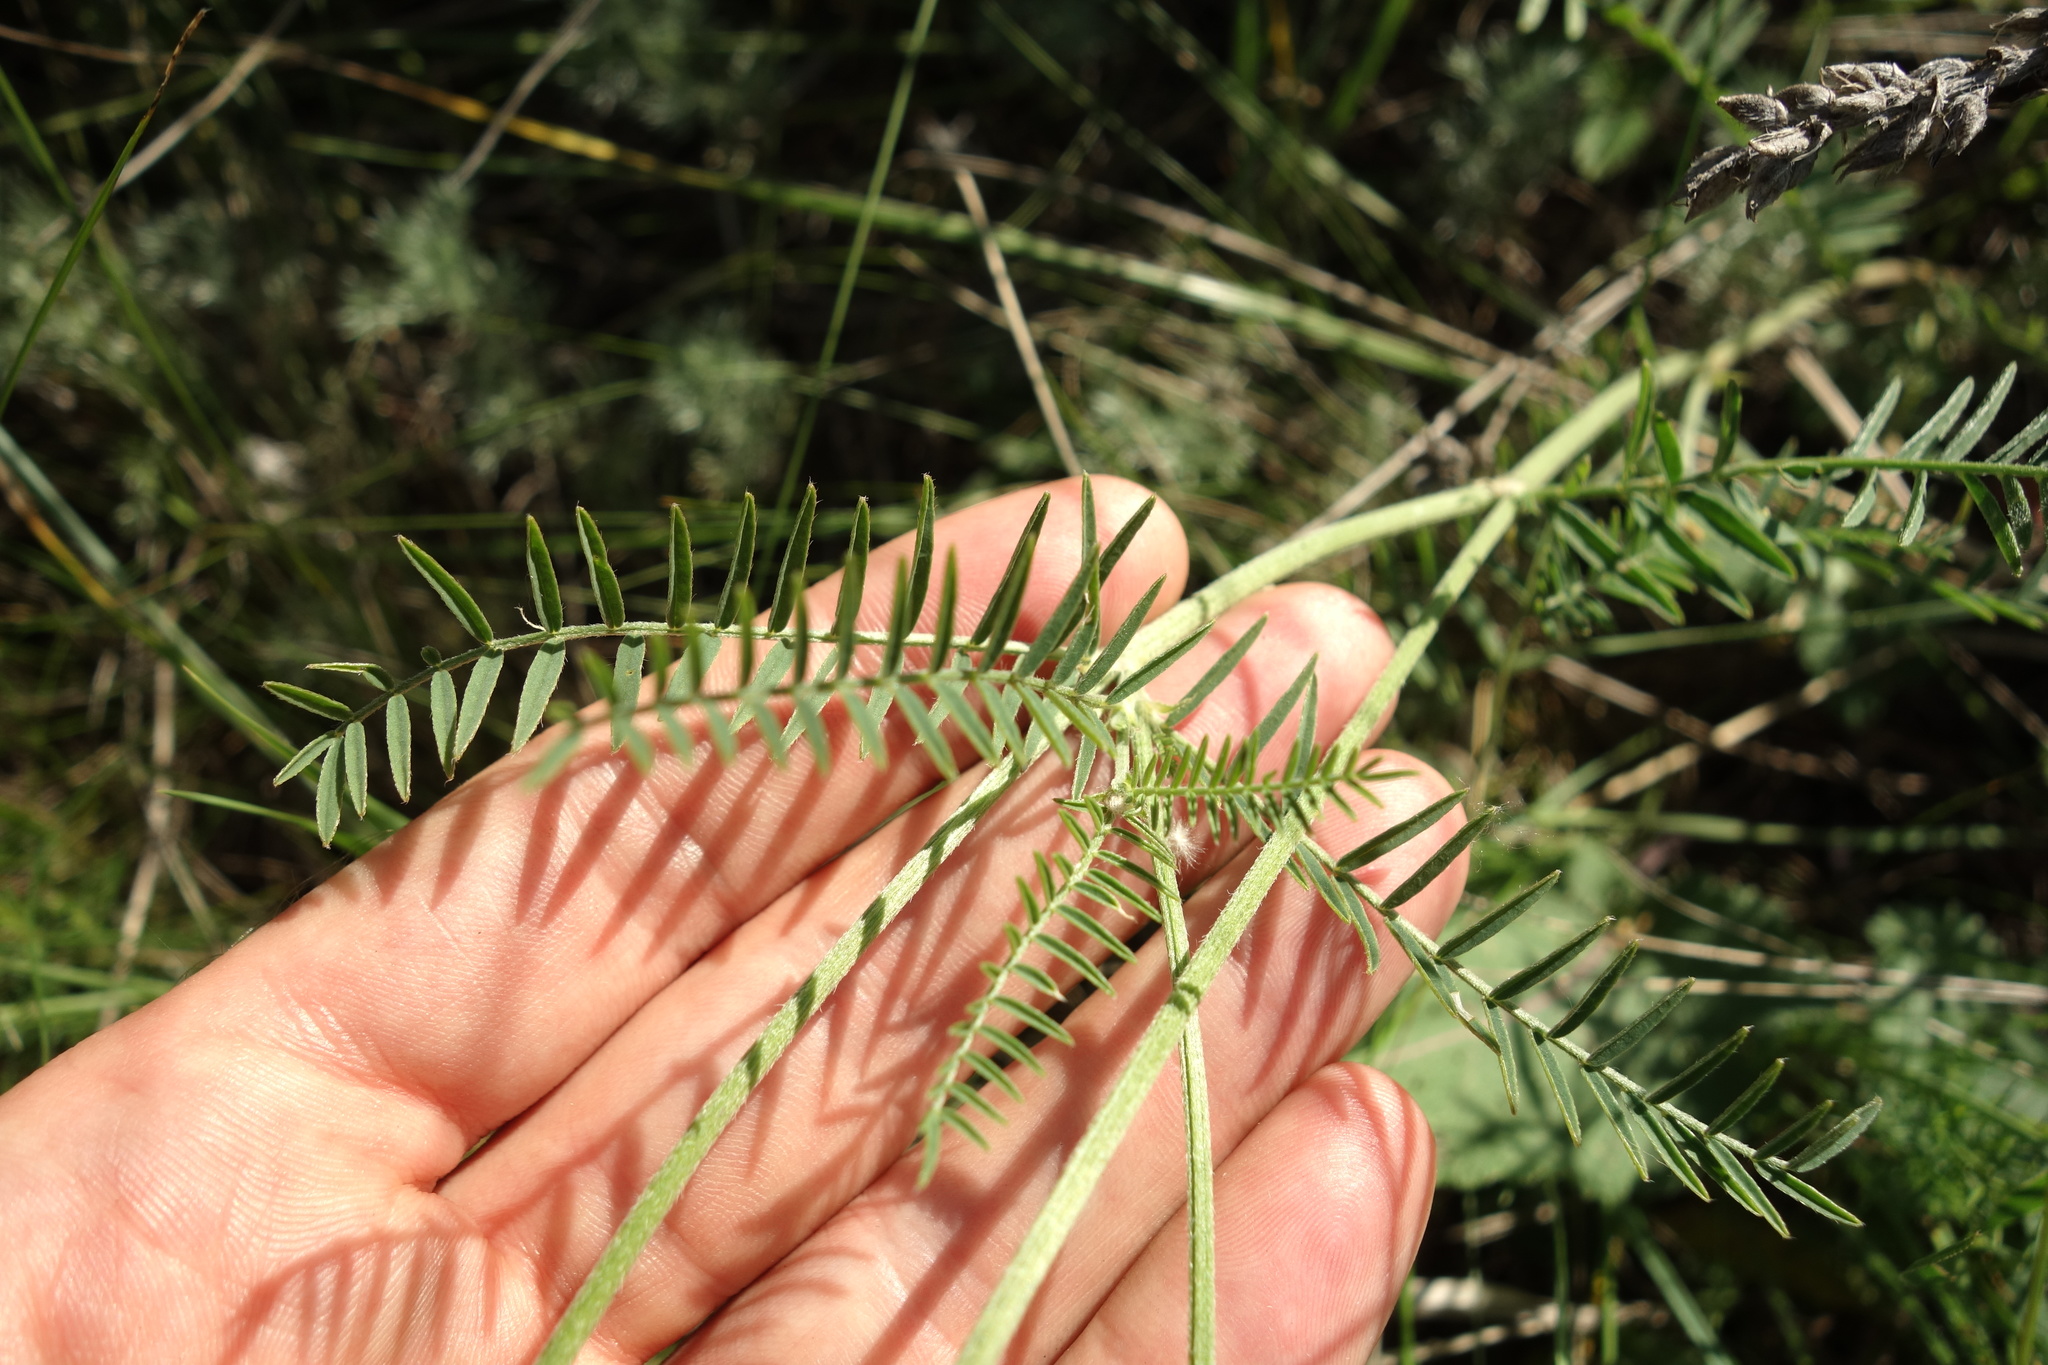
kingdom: Plantae
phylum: Tracheophyta
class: Magnoliopsida
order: Fabales
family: Fabaceae
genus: Astragalus
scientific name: Astragalus onobrychis
